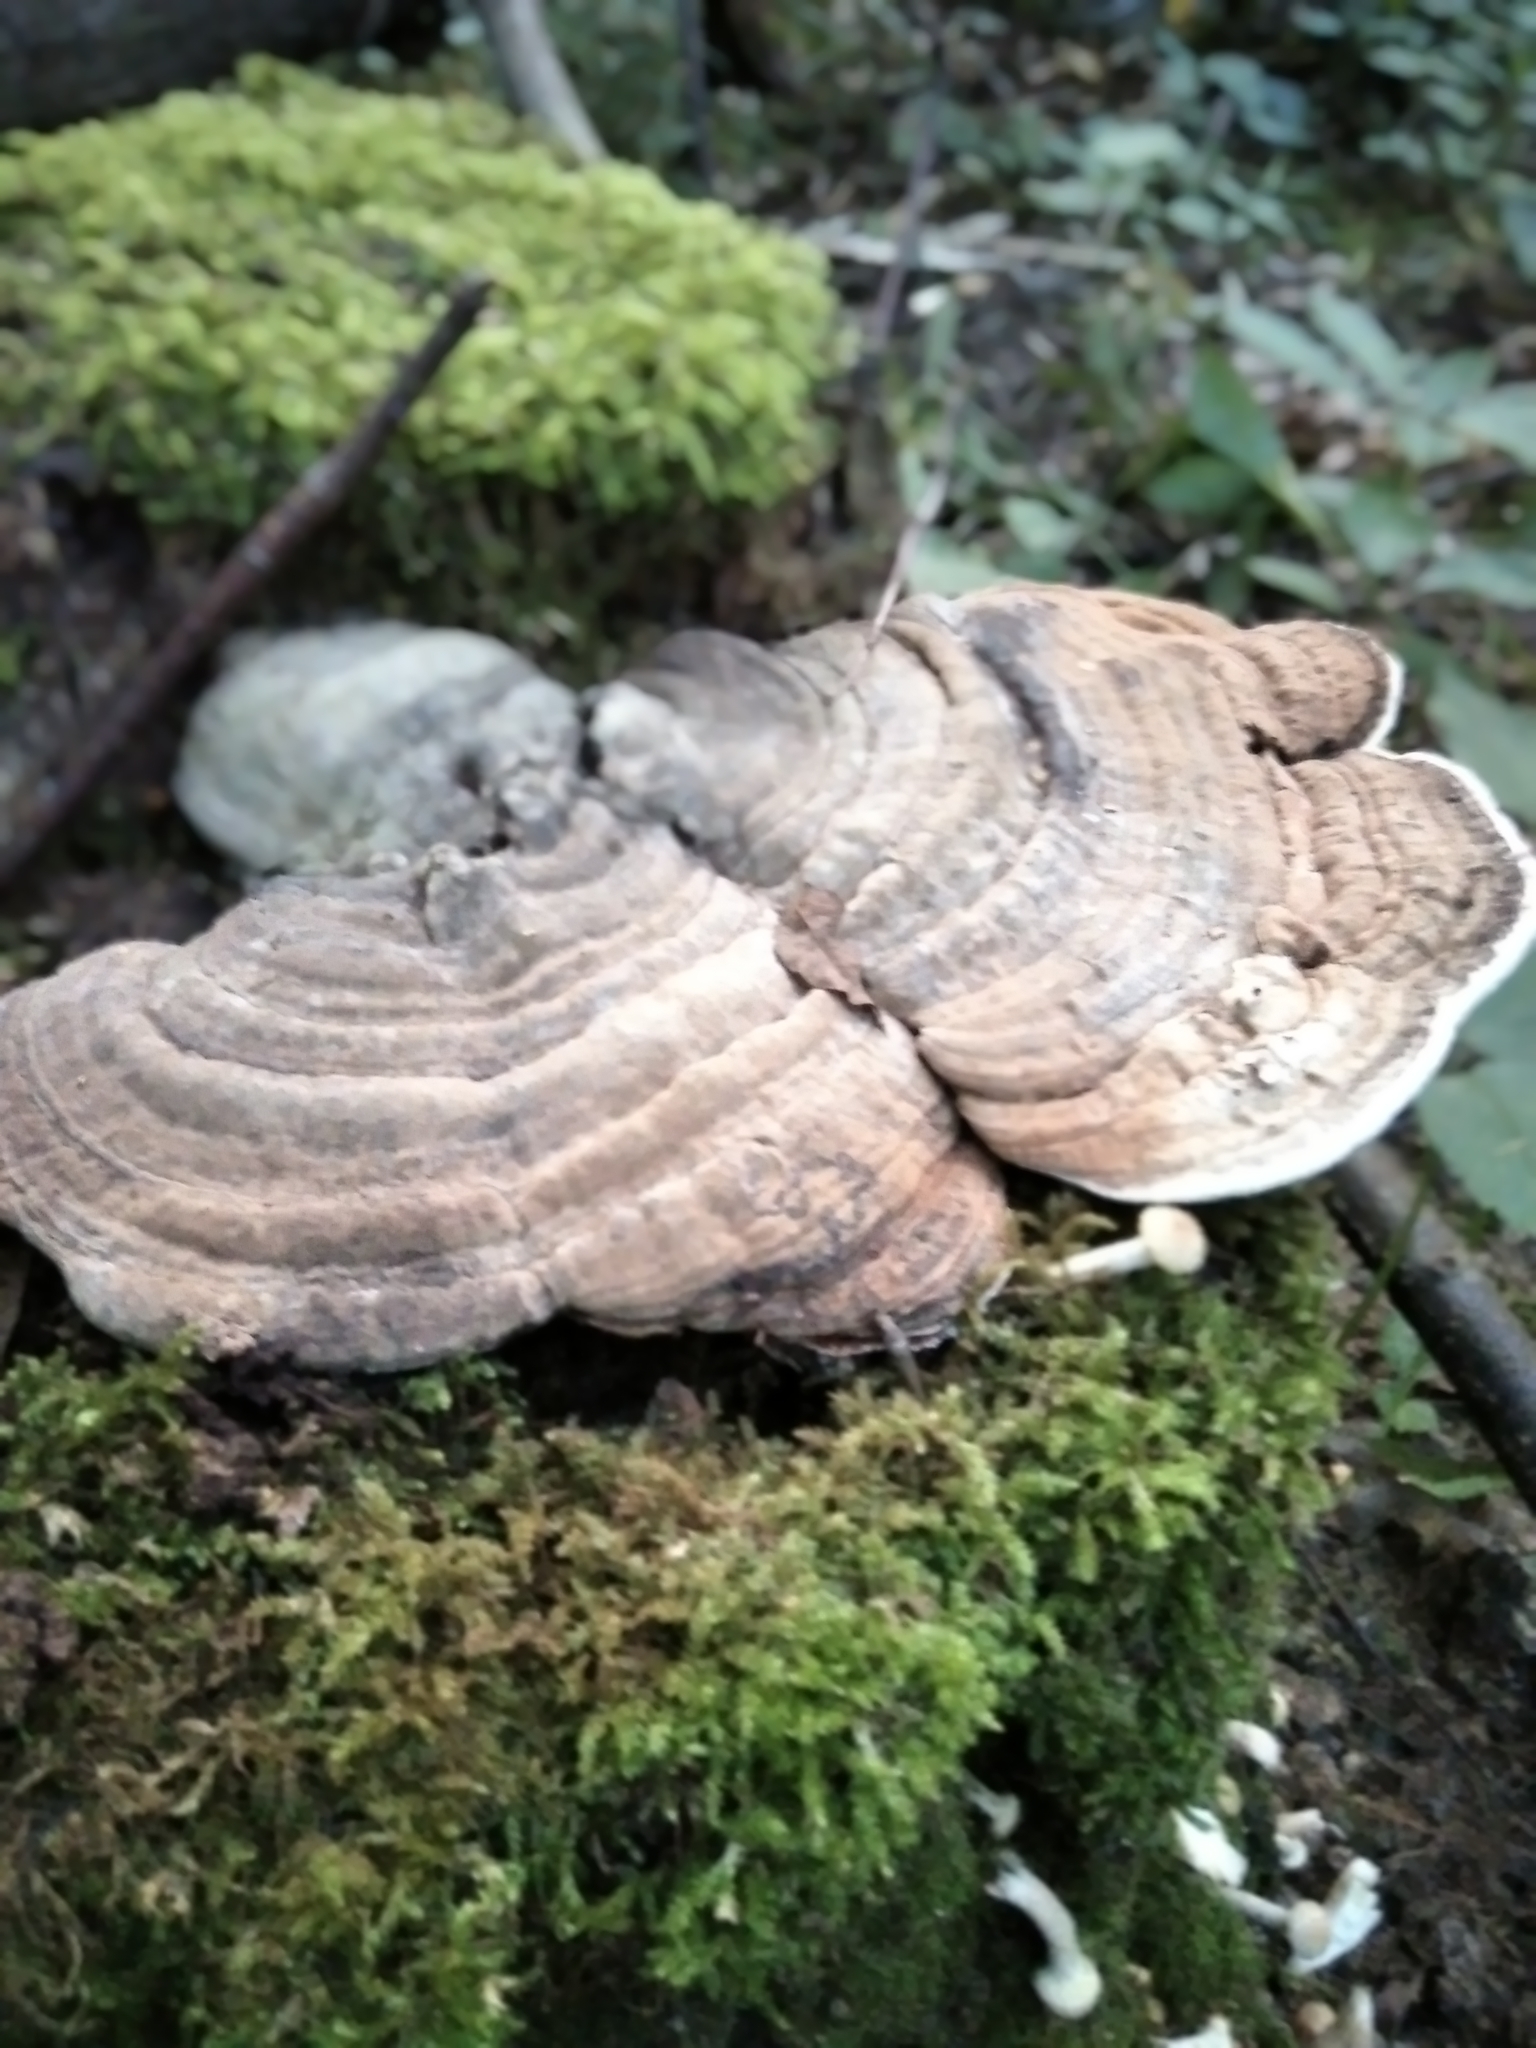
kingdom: Fungi
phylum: Basidiomycota
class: Agaricomycetes
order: Polyporales
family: Polyporaceae
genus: Ganoderma
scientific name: Ganoderma applanatum
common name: Artist's bracket
